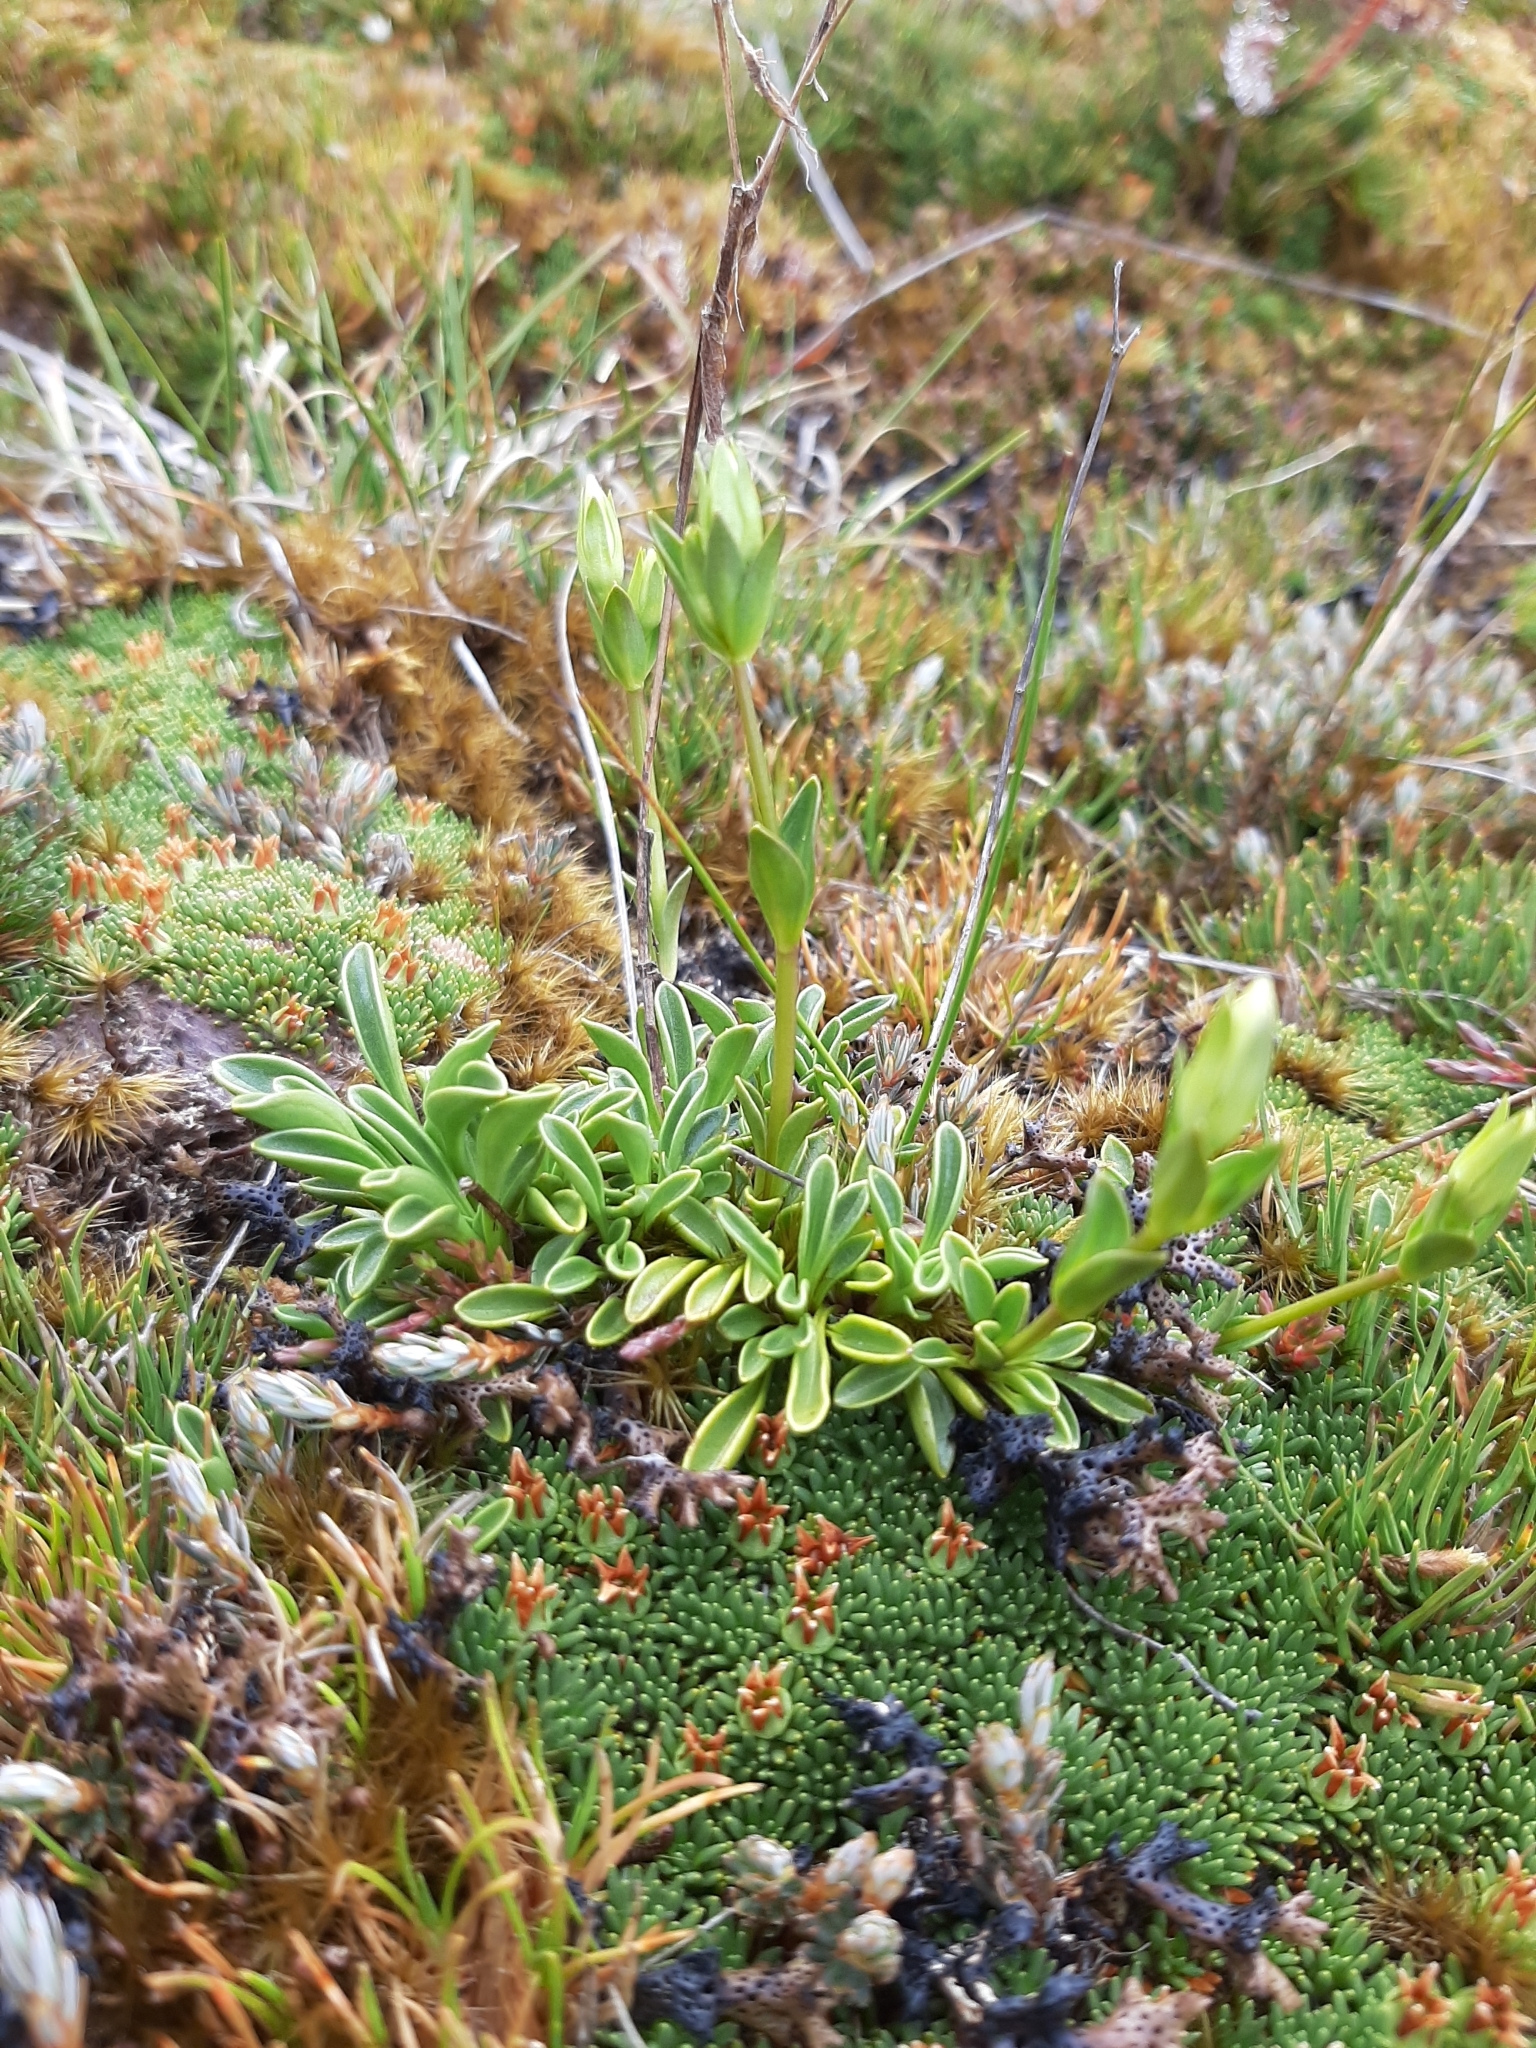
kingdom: Plantae
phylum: Tracheophyta
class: Magnoliopsida
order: Gentianales
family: Gentianaceae
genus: Gentianella
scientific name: Gentianella bellidifolia
